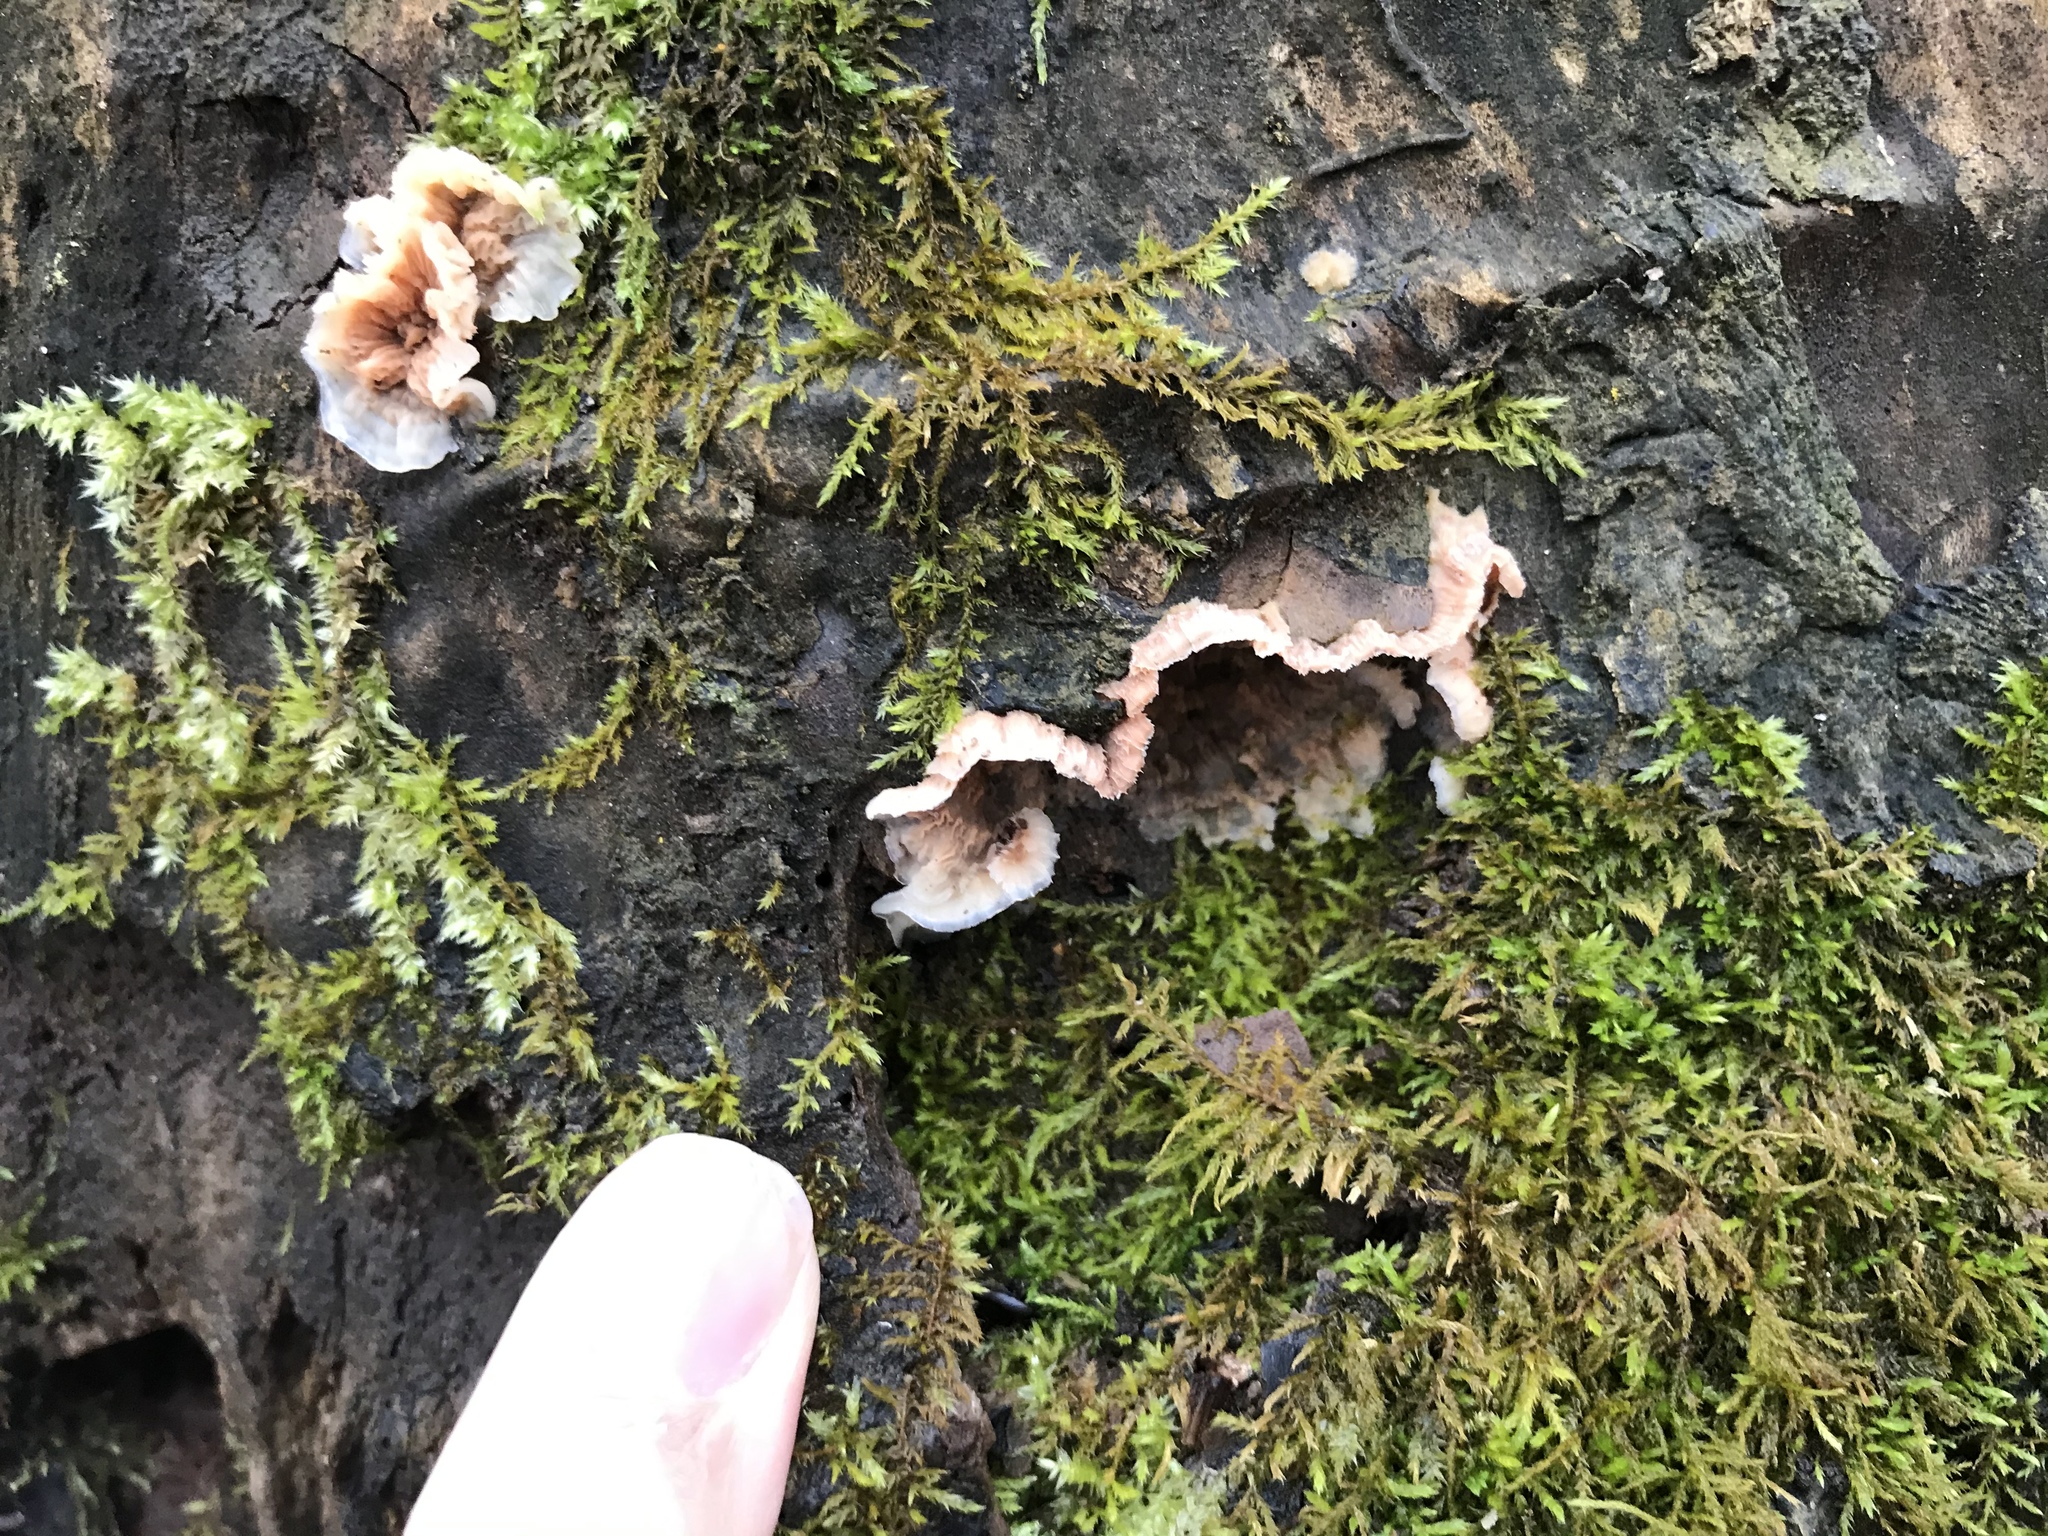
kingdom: Fungi
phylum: Basidiomycota
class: Agaricomycetes
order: Polyporales
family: Meruliaceae
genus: Phlebia
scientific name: Phlebia tremellosa
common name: Jelly rot
